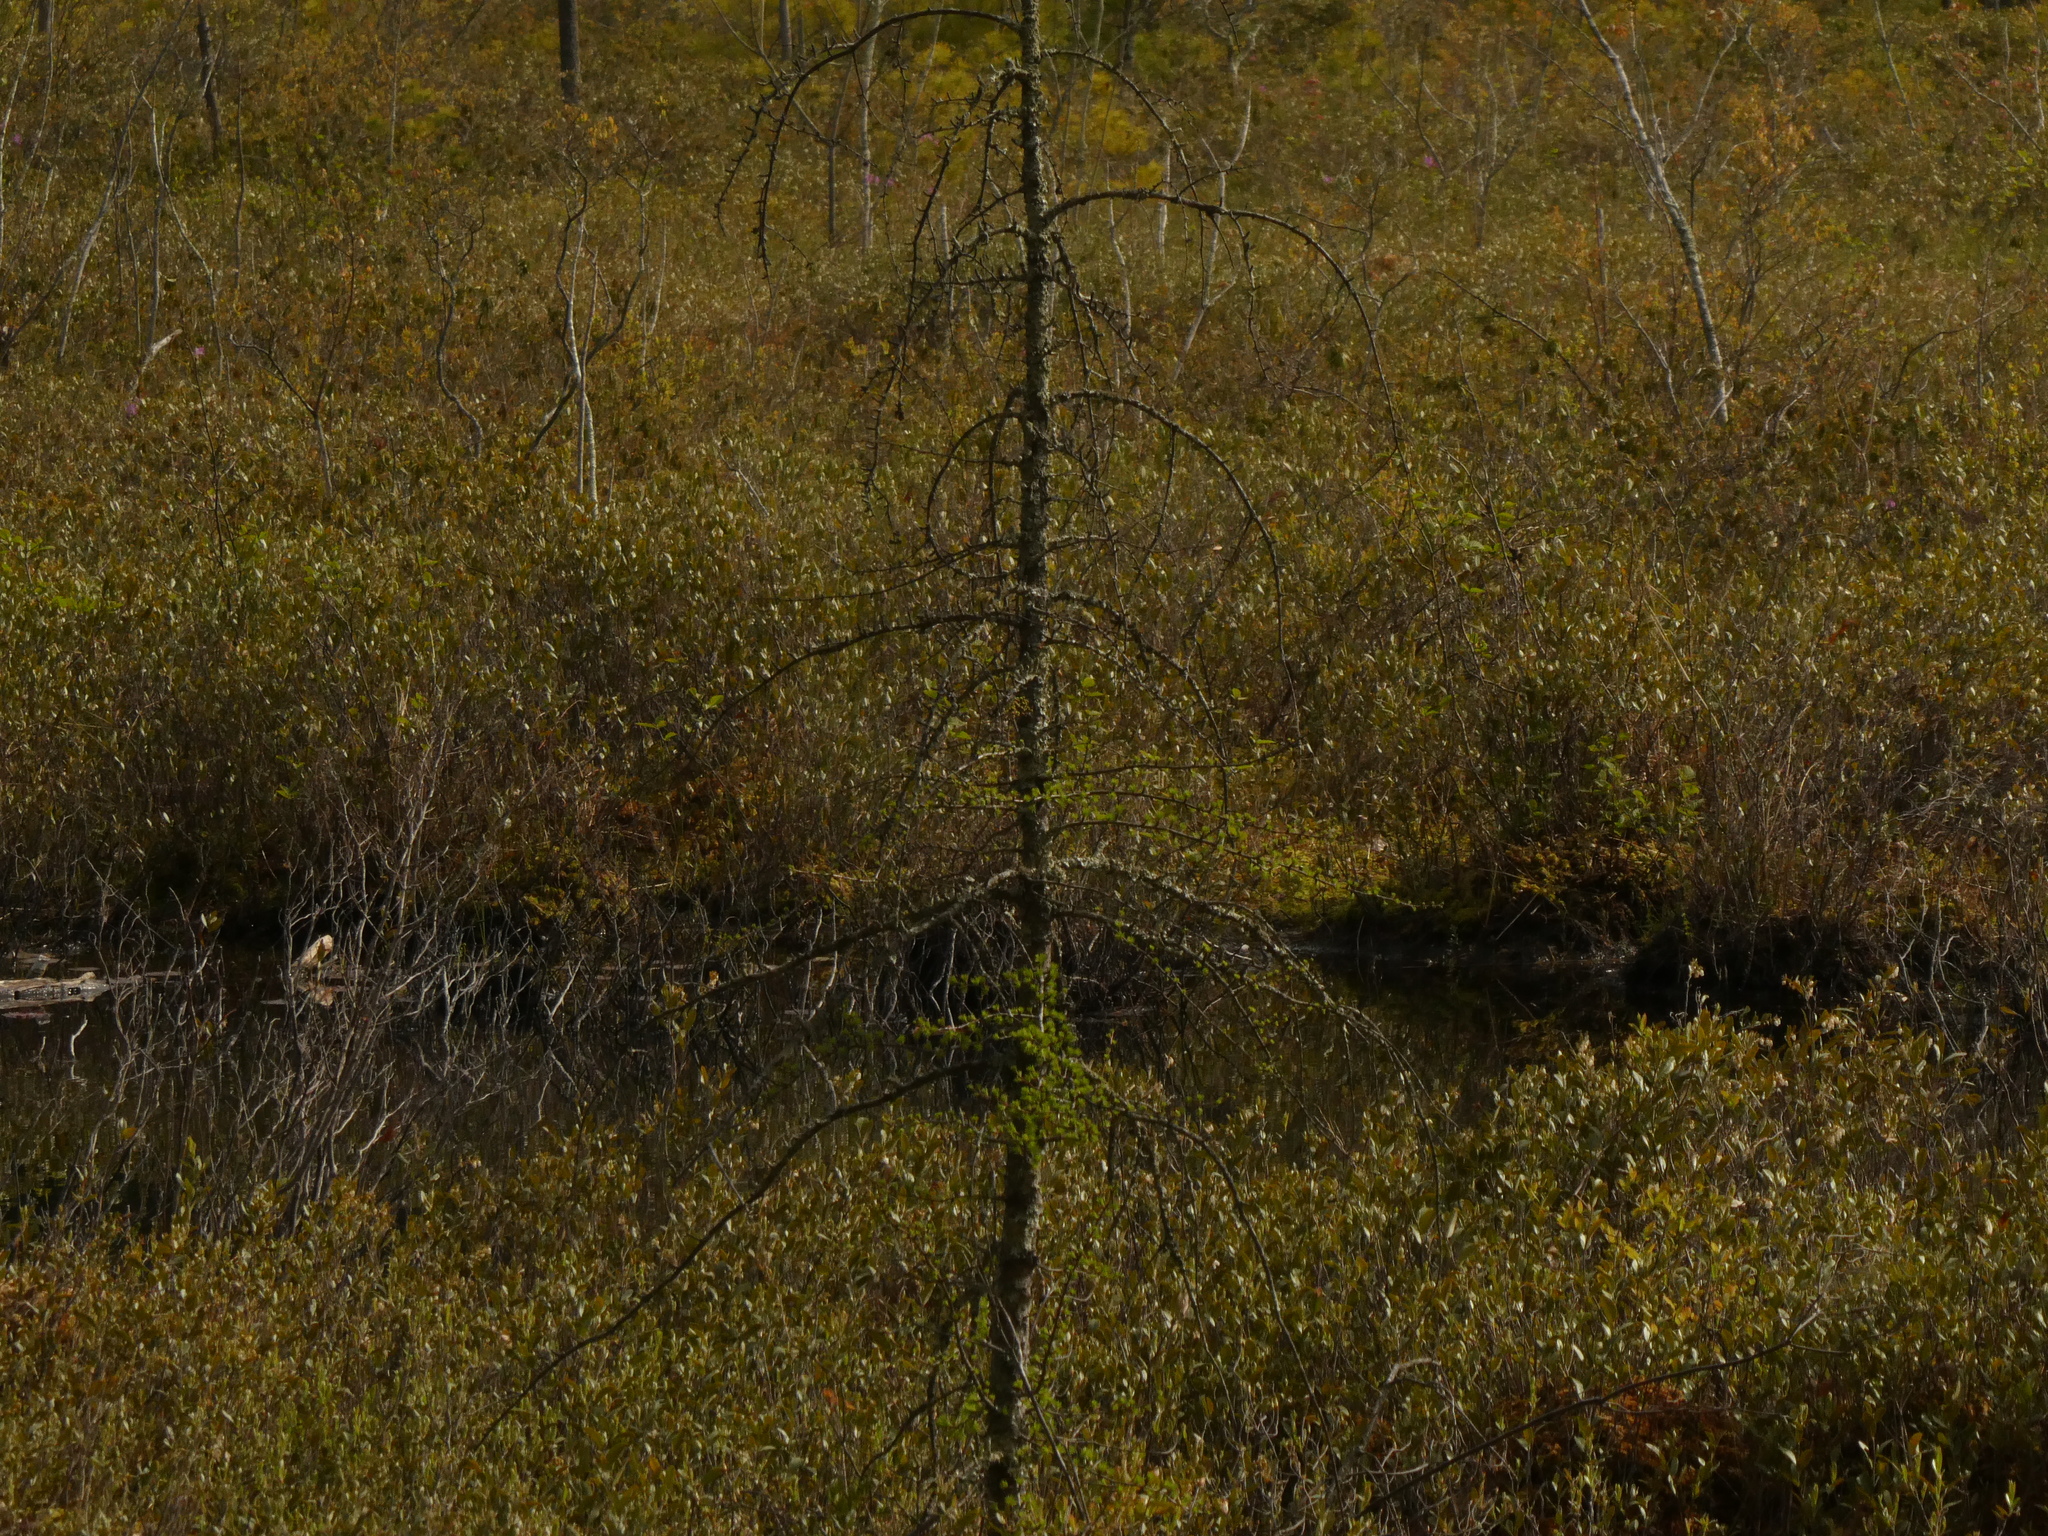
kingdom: Plantae
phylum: Tracheophyta
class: Pinopsida
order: Pinales
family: Pinaceae
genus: Larix
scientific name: Larix laricina
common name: American larch
